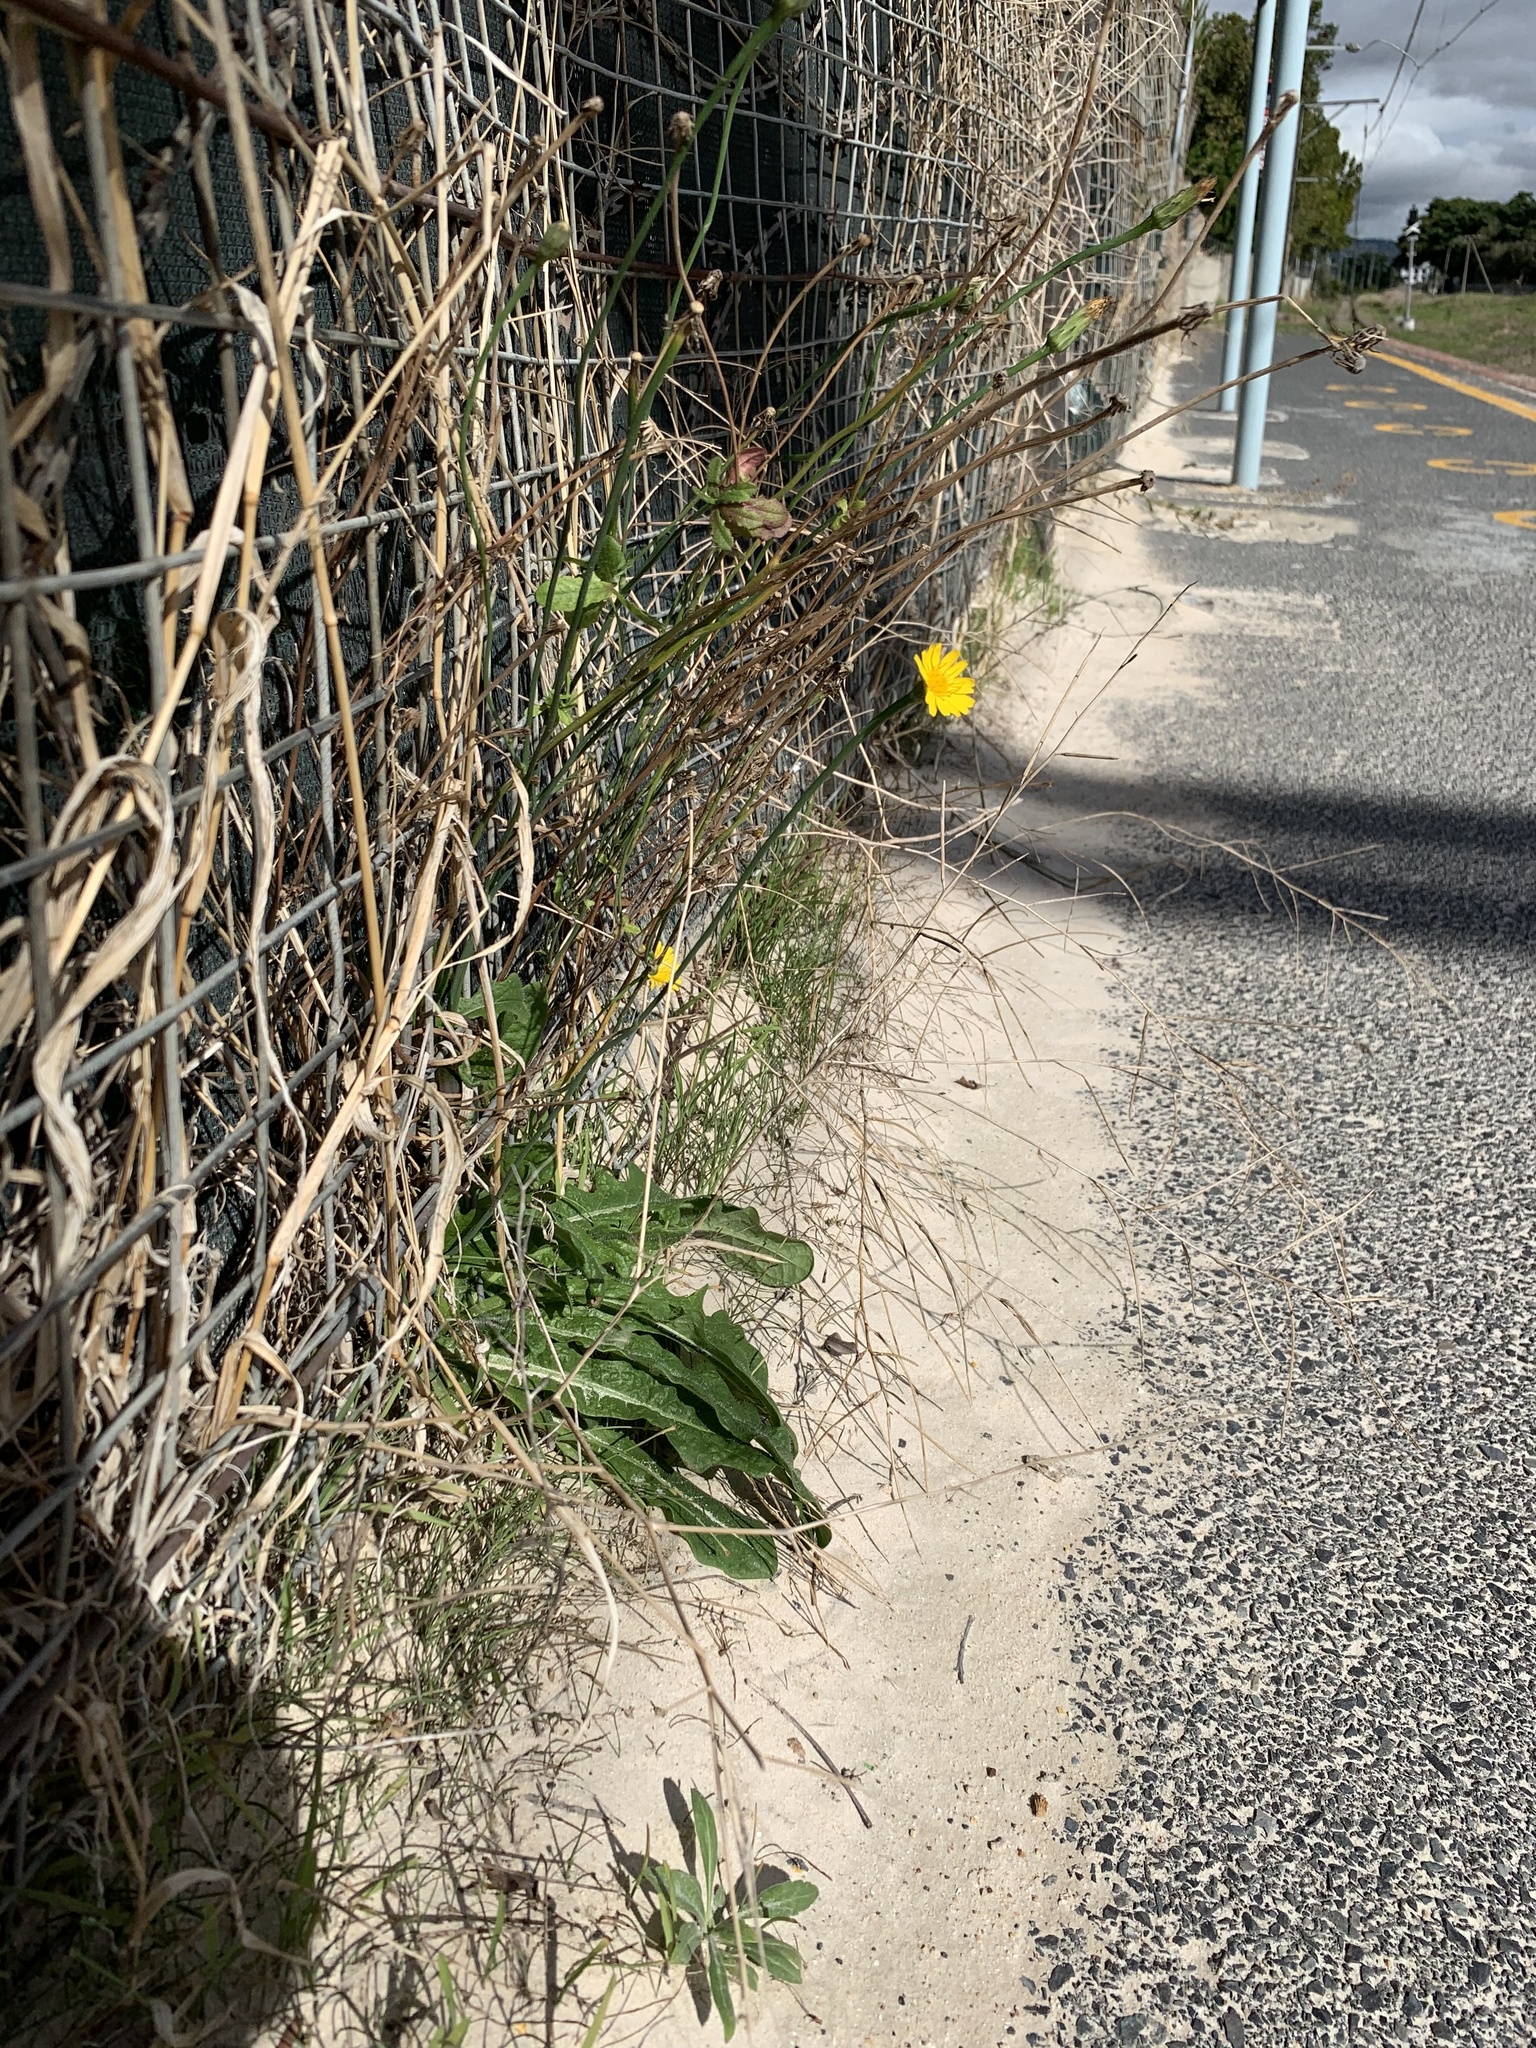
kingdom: Plantae
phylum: Tracheophyta
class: Magnoliopsida
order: Asterales
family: Asteraceae
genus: Hypochaeris
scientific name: Hypochaeris radicata
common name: Flatweed
